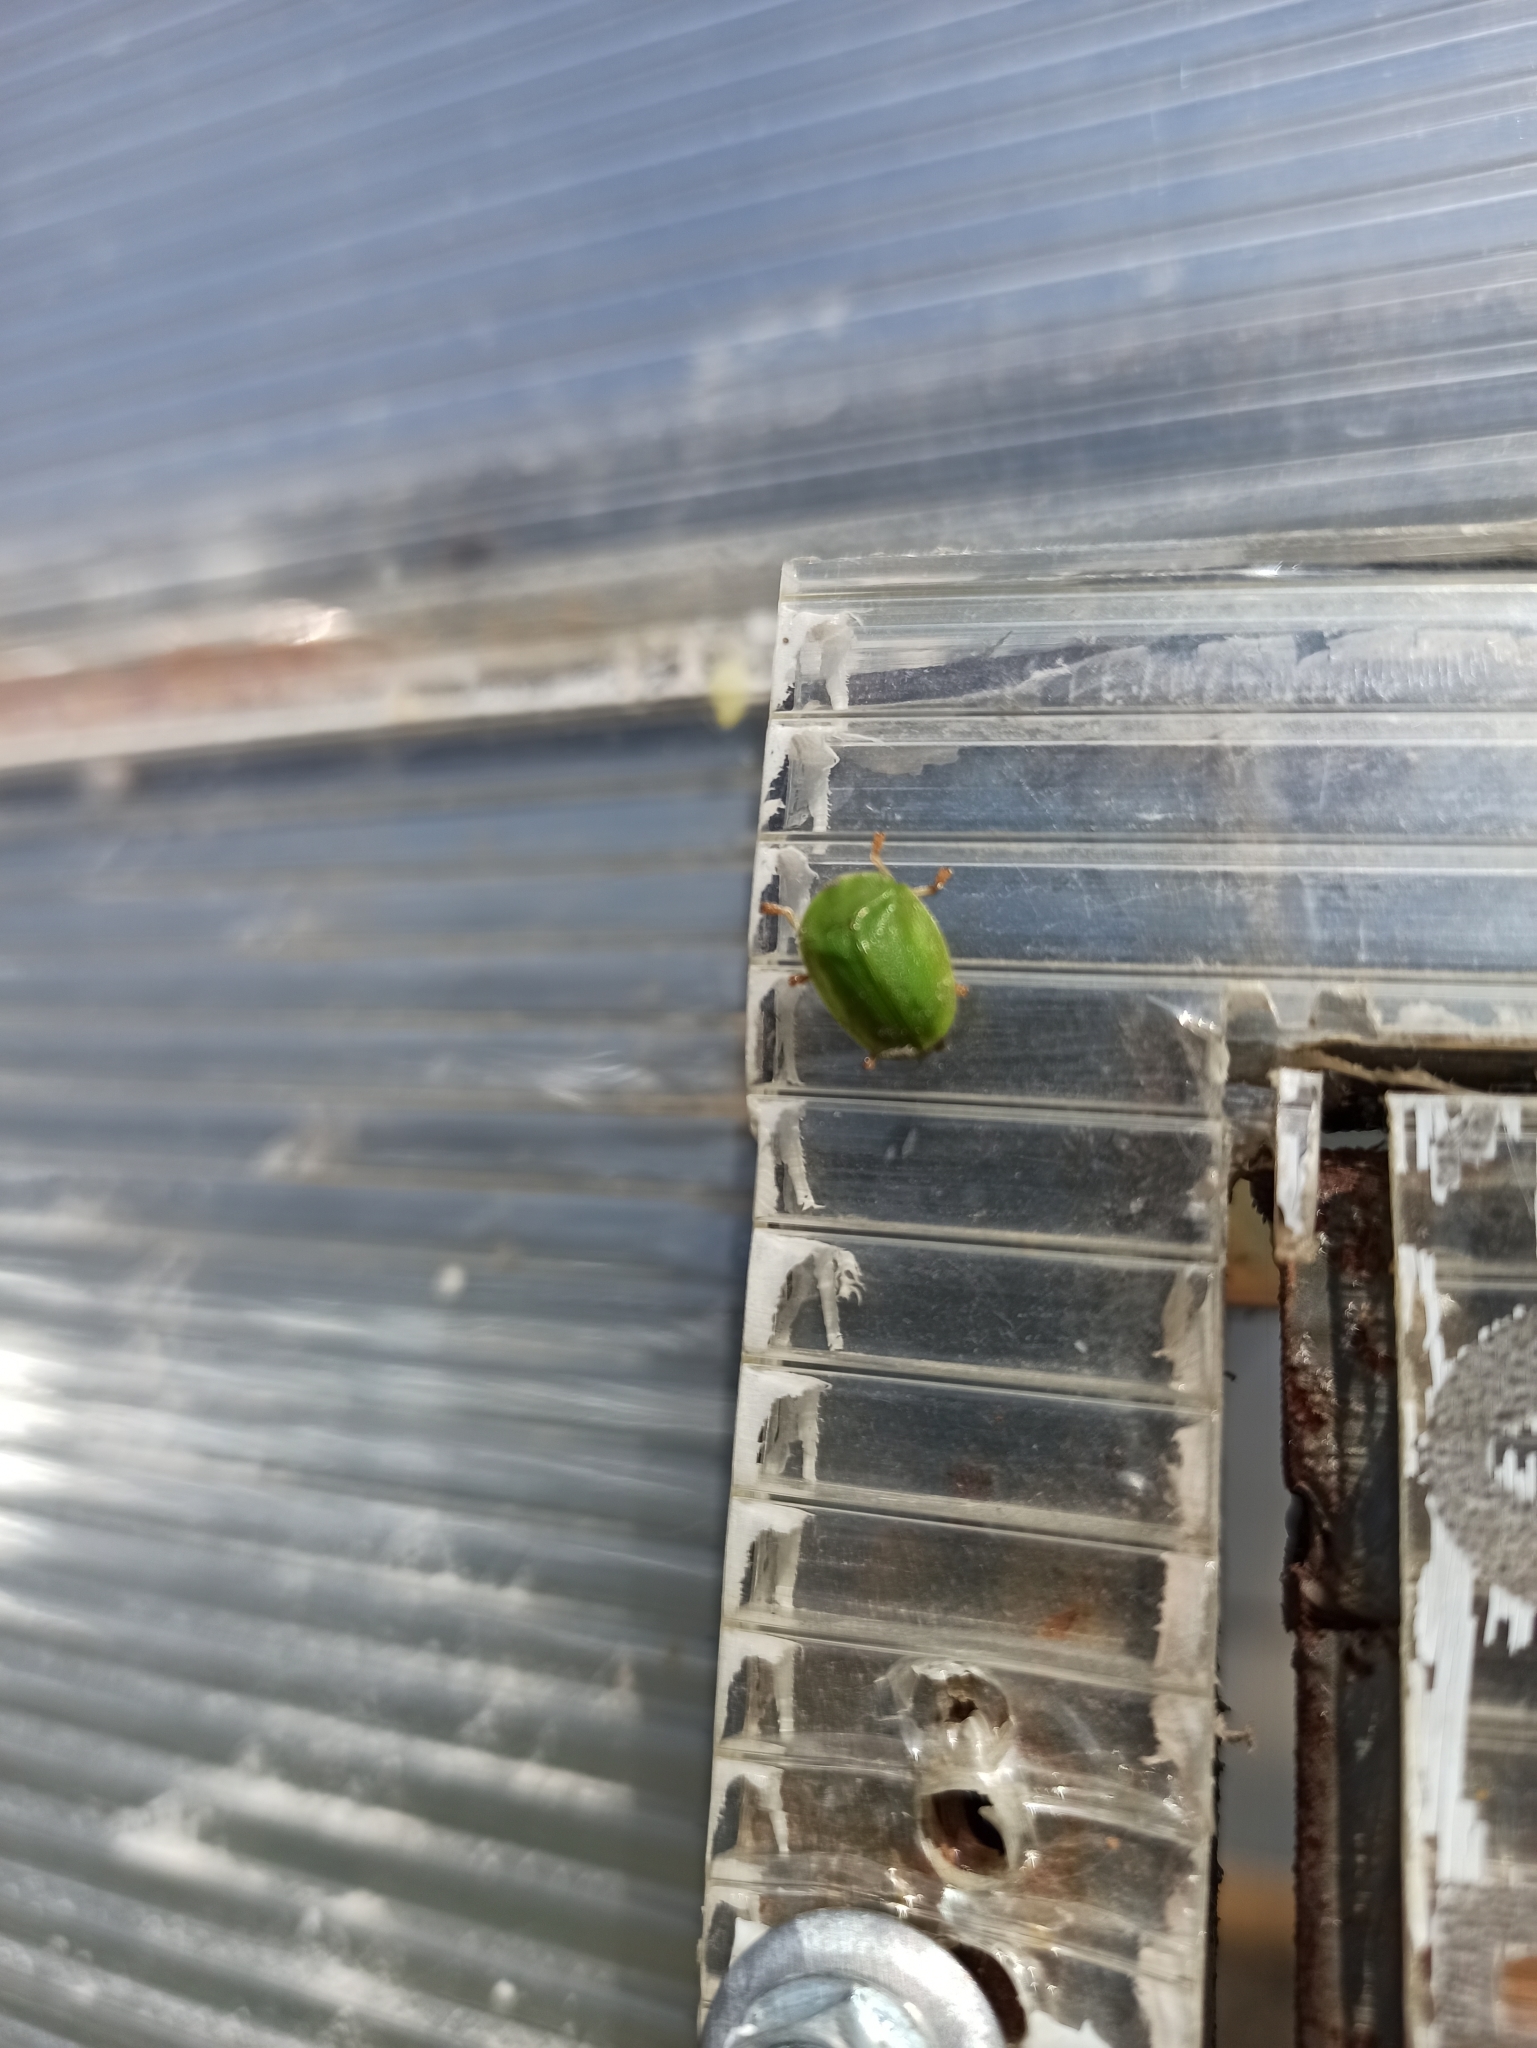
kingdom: Animalia
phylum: Arthropoda
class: Insecta
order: Coleoptera
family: Chrysomelidae
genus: Cassida
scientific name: Cassida viridis
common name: Green tortoise beetle
